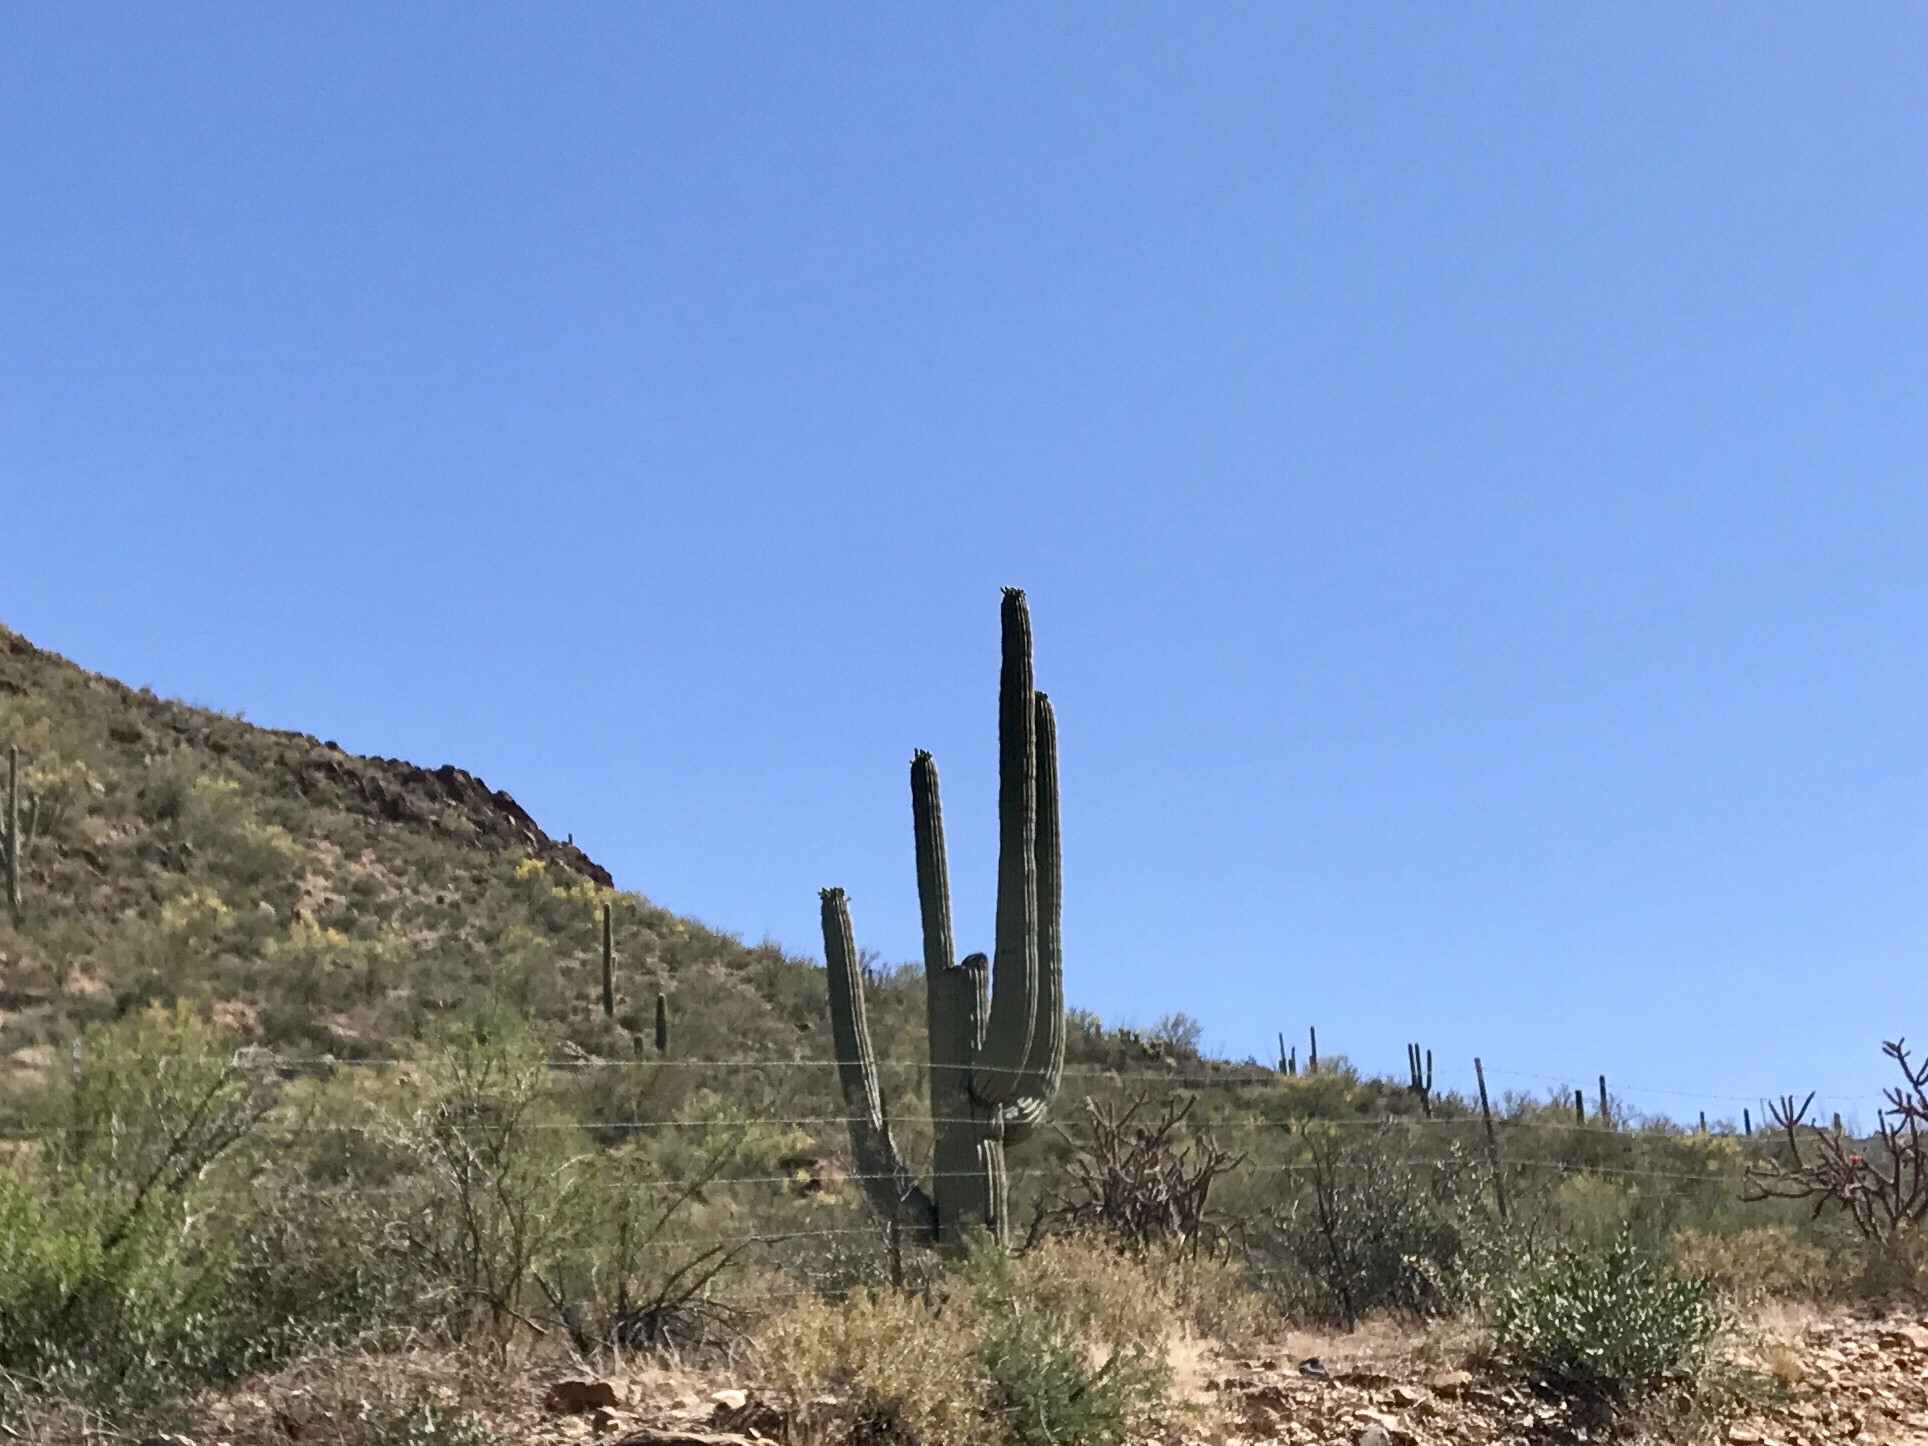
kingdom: Plantae
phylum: Tracheophyta
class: Magnoliopsida
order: Caryophyllales
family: Cactaceae
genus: Carnegiea
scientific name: Carnegiea gigantea
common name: Saguaro
